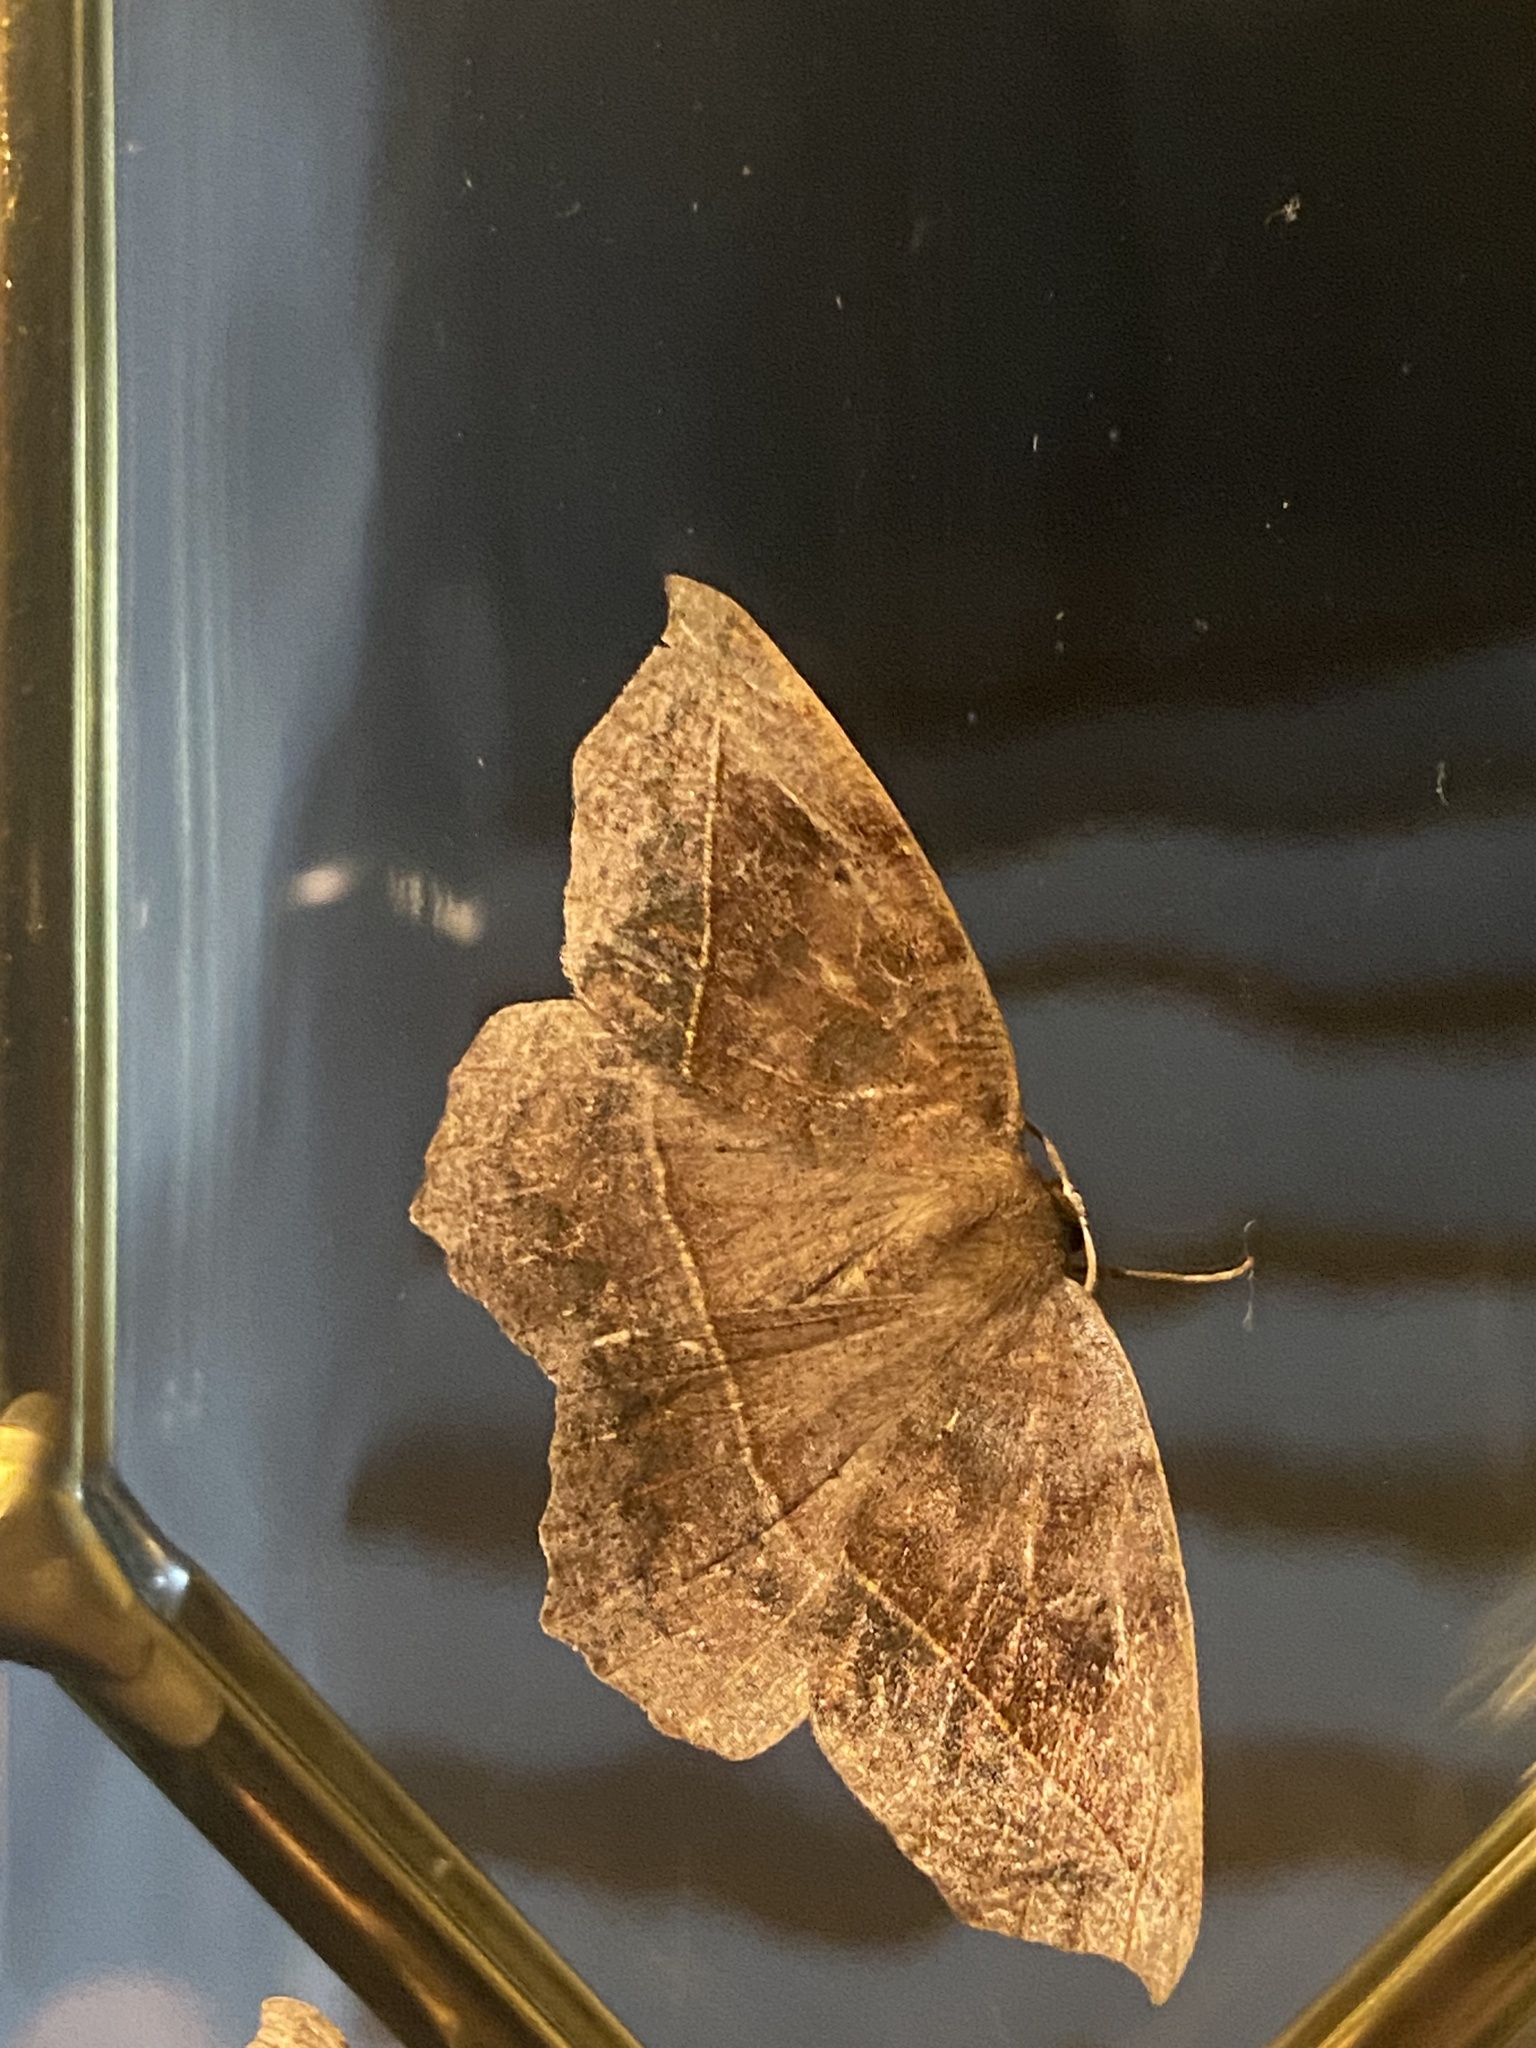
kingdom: Animalia
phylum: Arthropoda
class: Insecta
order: Lepidoptera
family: Geometridae
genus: Eutrapela
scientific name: Eutrapela clemataria
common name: Curved-toothed geometer
